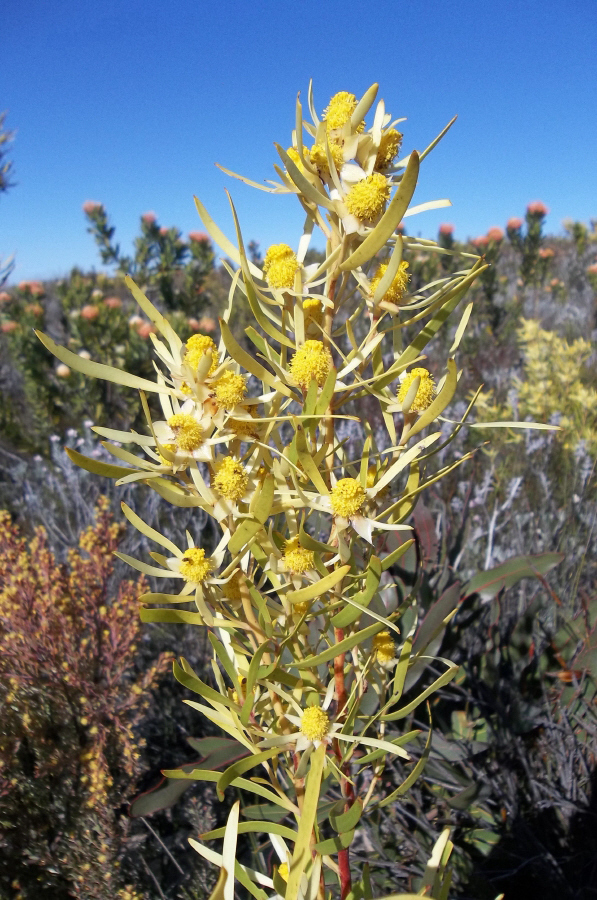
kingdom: Plantae
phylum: Tracheophyta
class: Magnoliopsida
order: Proteales
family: Proteaceae
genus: Leucadendron
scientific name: Leucadendron eucalyptifolium
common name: Gum-leaved conebush
